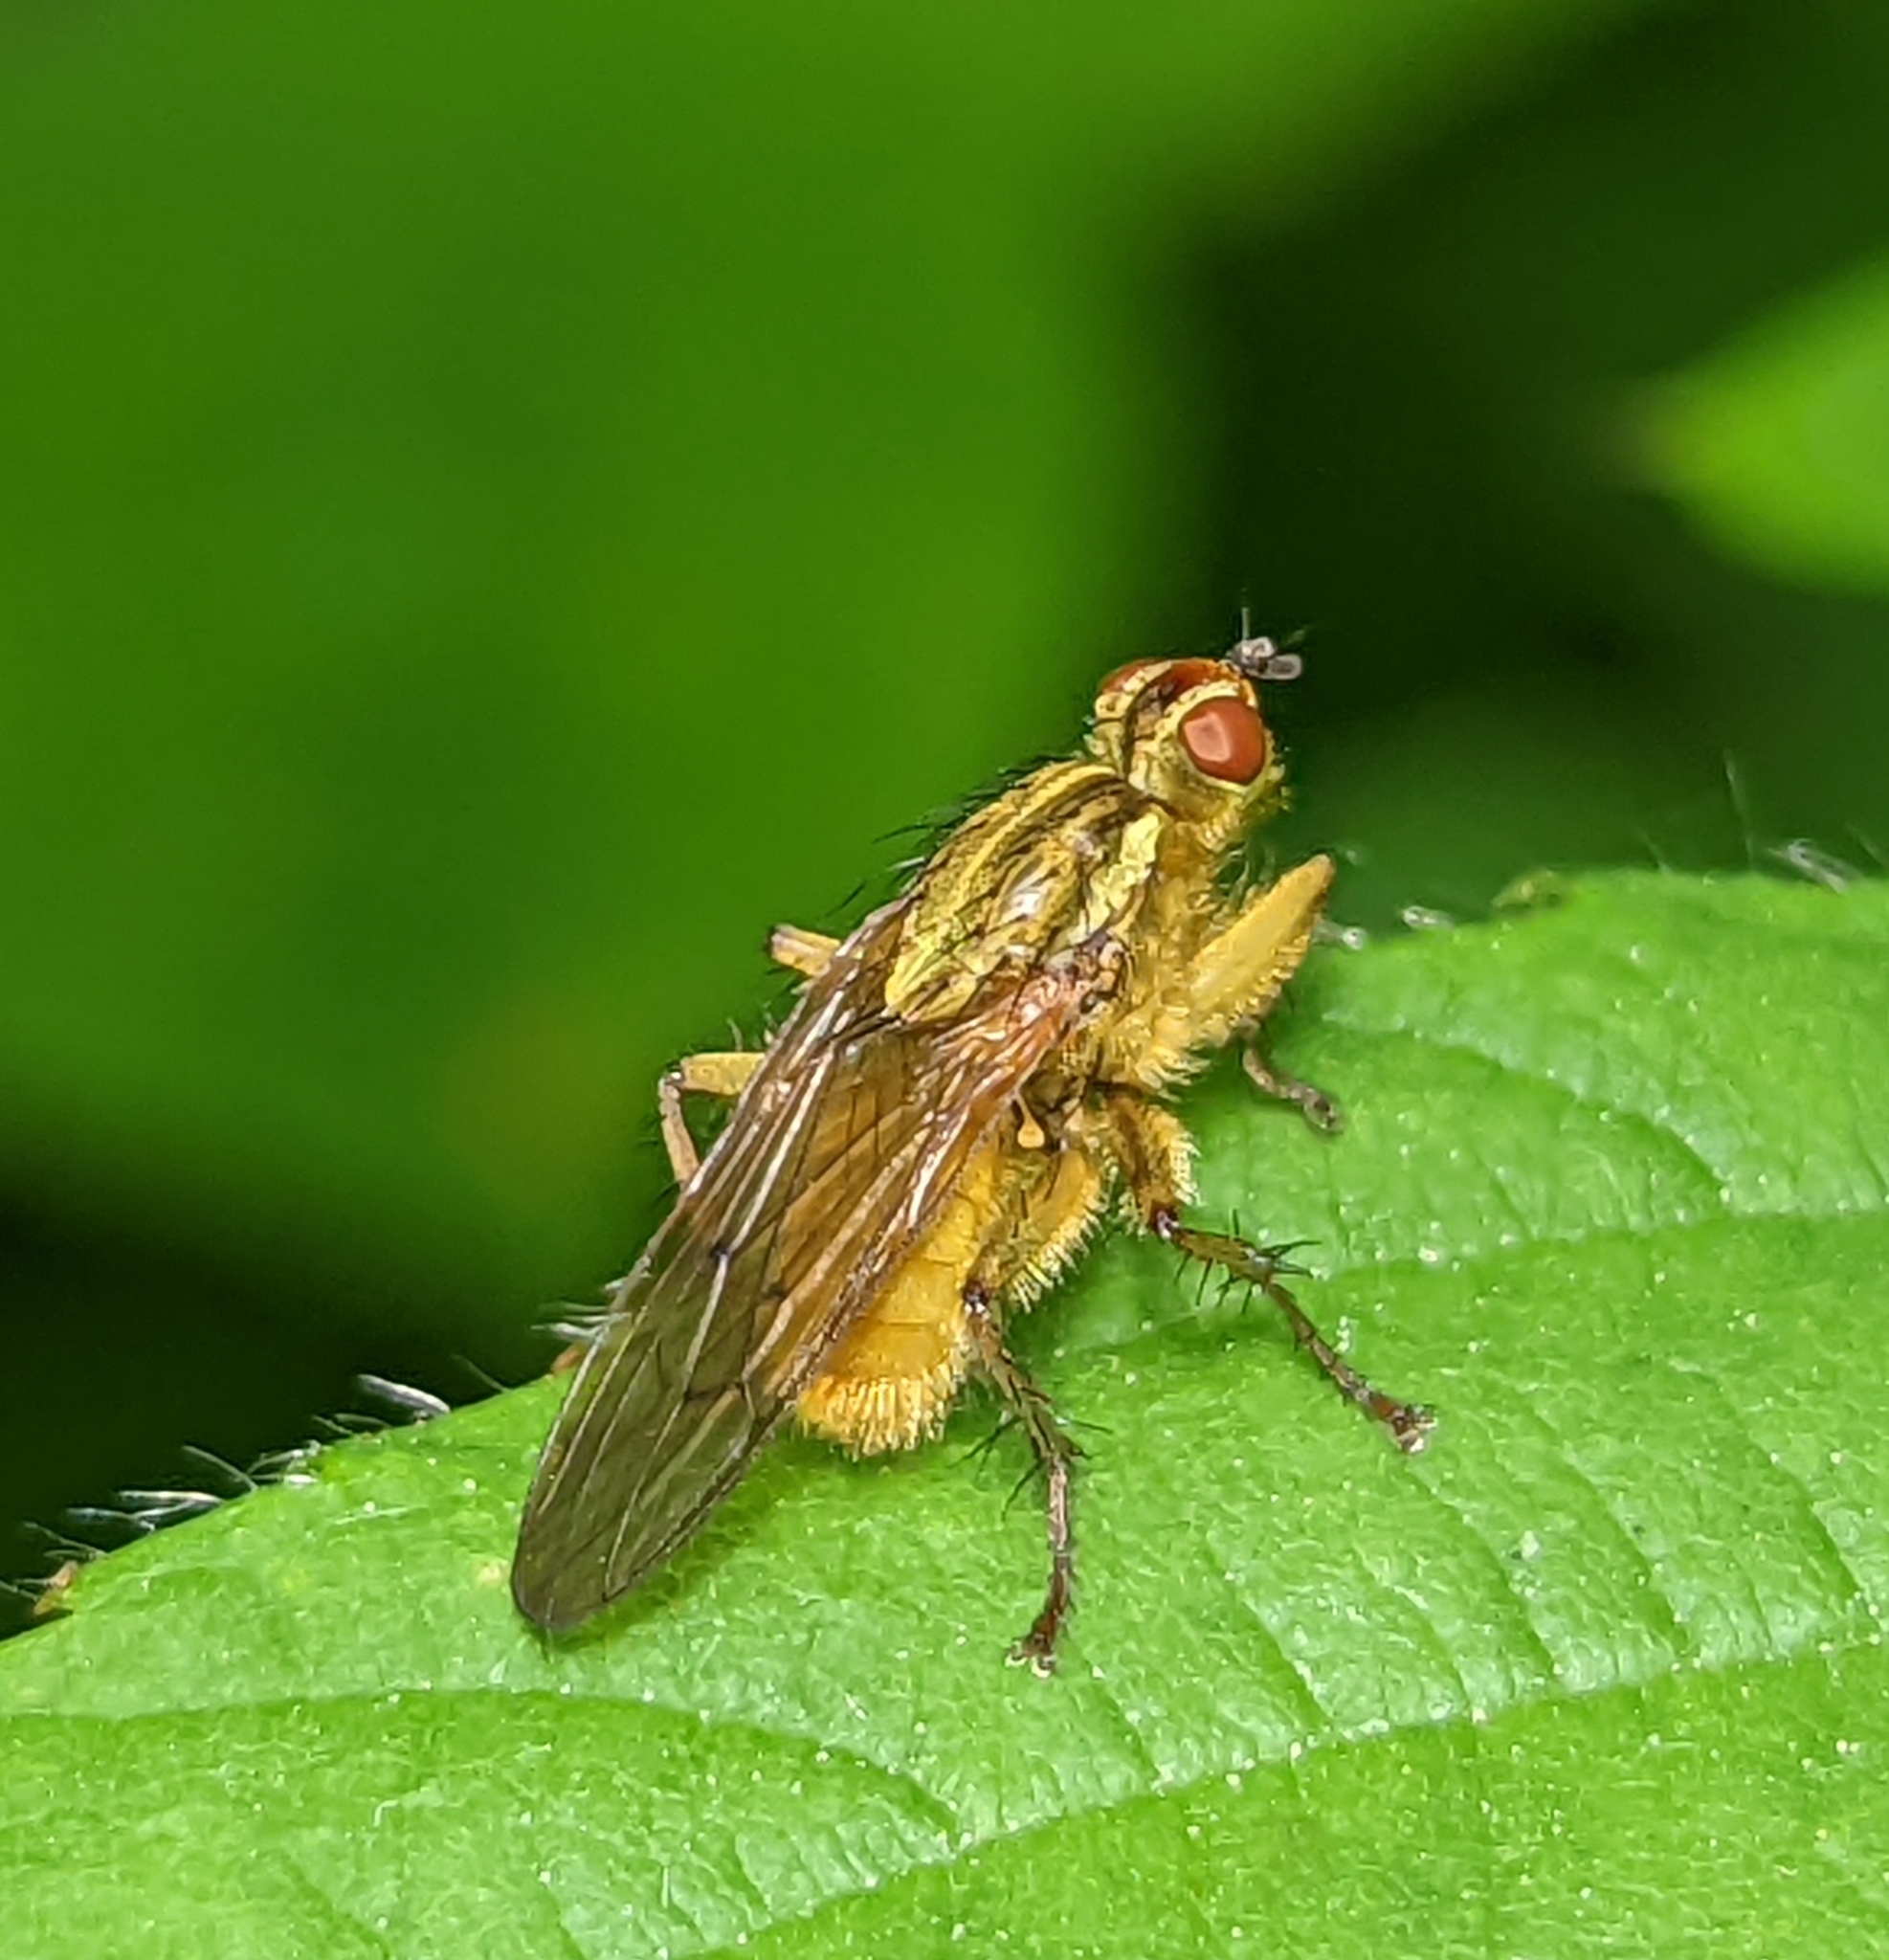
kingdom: Animalia
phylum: Arthropoda
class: Insecta
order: Diptera
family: Scathophagidae
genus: Scathophaga
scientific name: Scathophaga stercoraria
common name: Yellow dung fly
